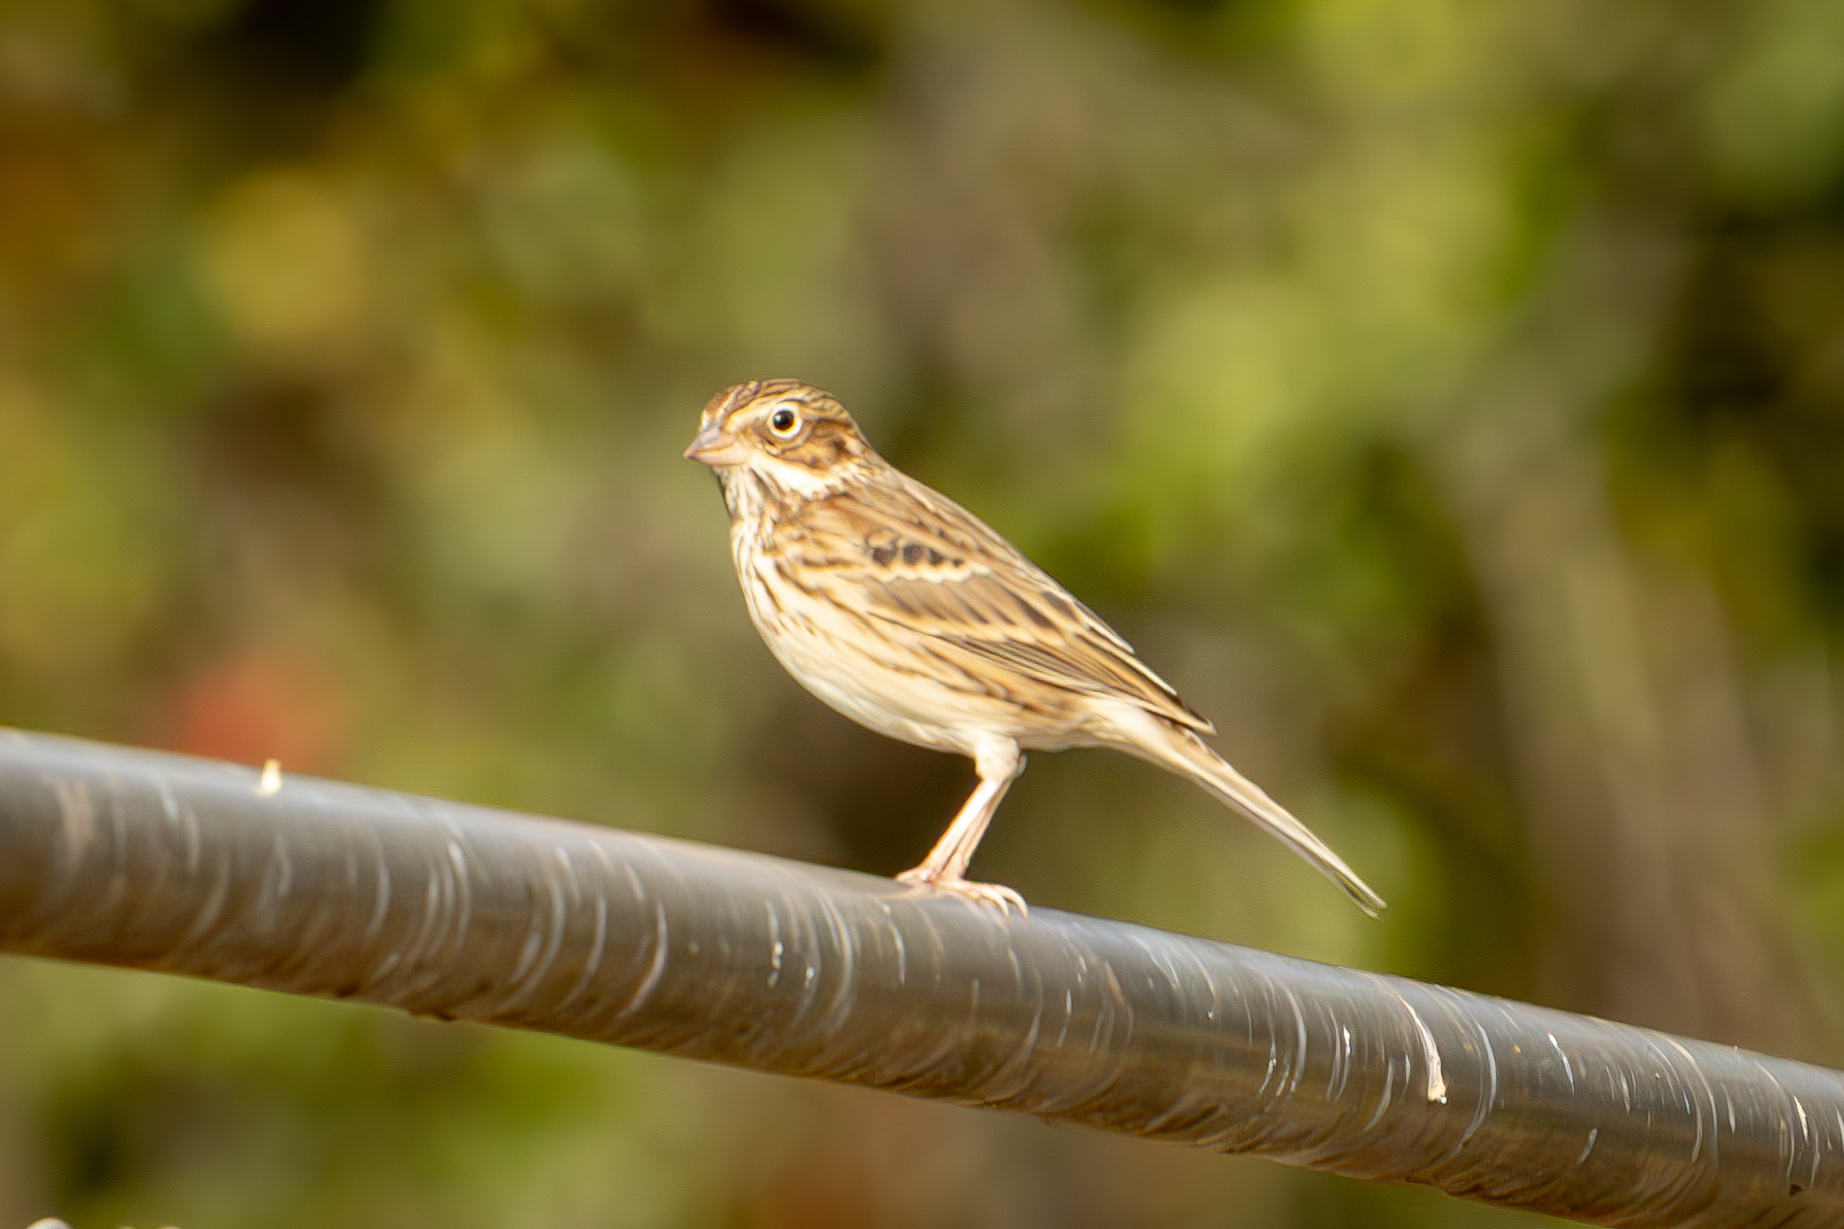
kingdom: Animalia
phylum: Chordata
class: Aves
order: Passeriformes
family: Passerellidae
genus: Pooecetes
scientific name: Pooecetes gramineus
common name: Vesper sparrow
